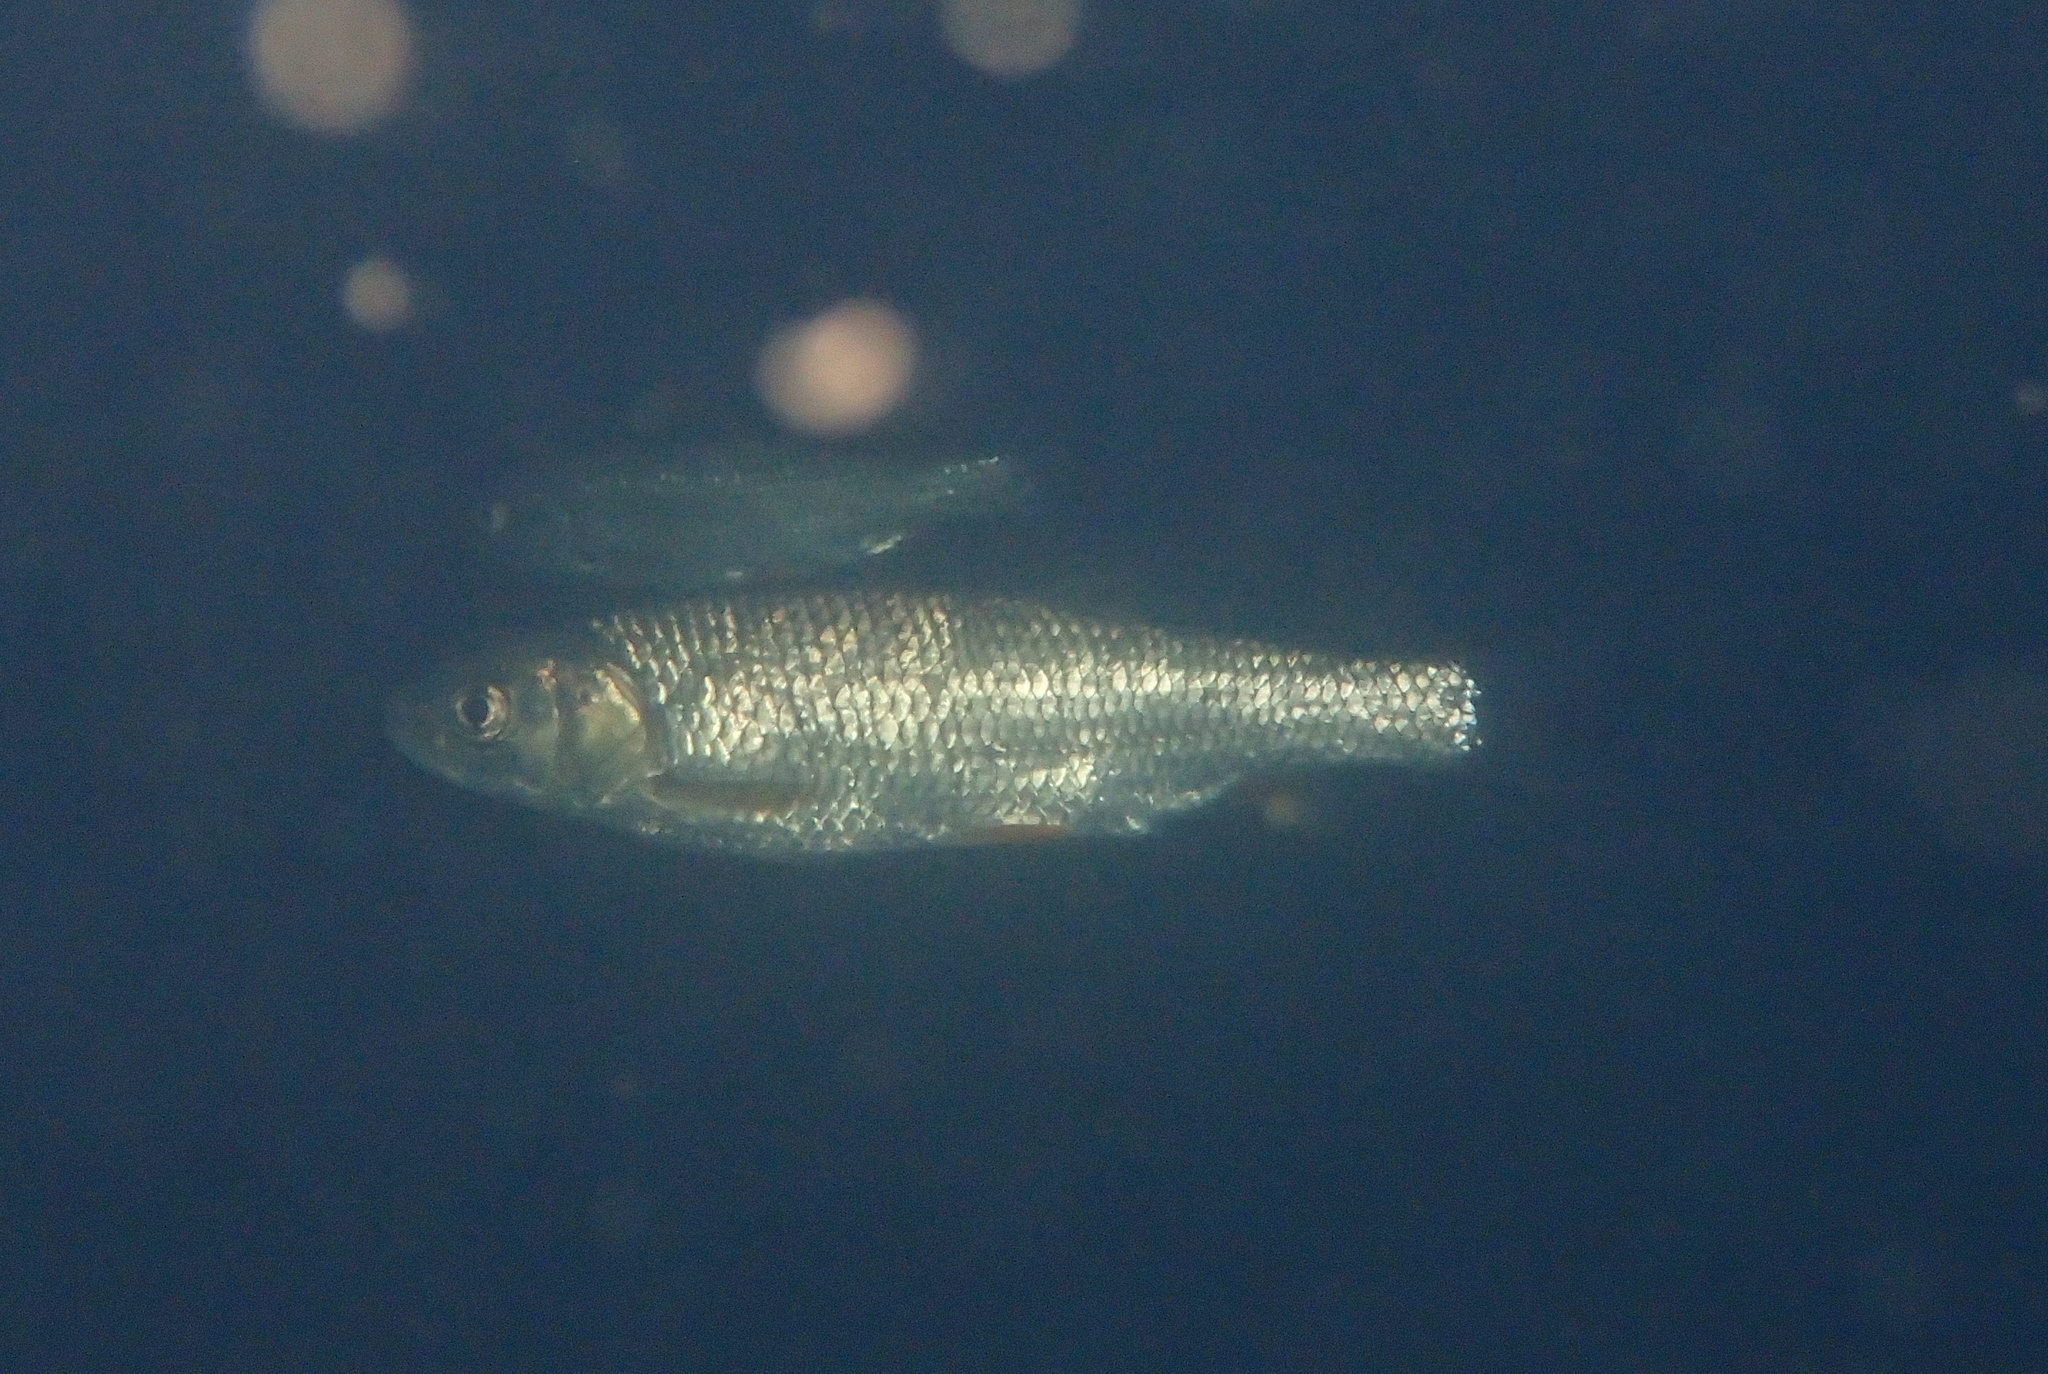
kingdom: Animalia
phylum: Chordata
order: Cypriniformes
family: Cyprinidae
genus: Squalius
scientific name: Squalius cephalus
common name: Chub
